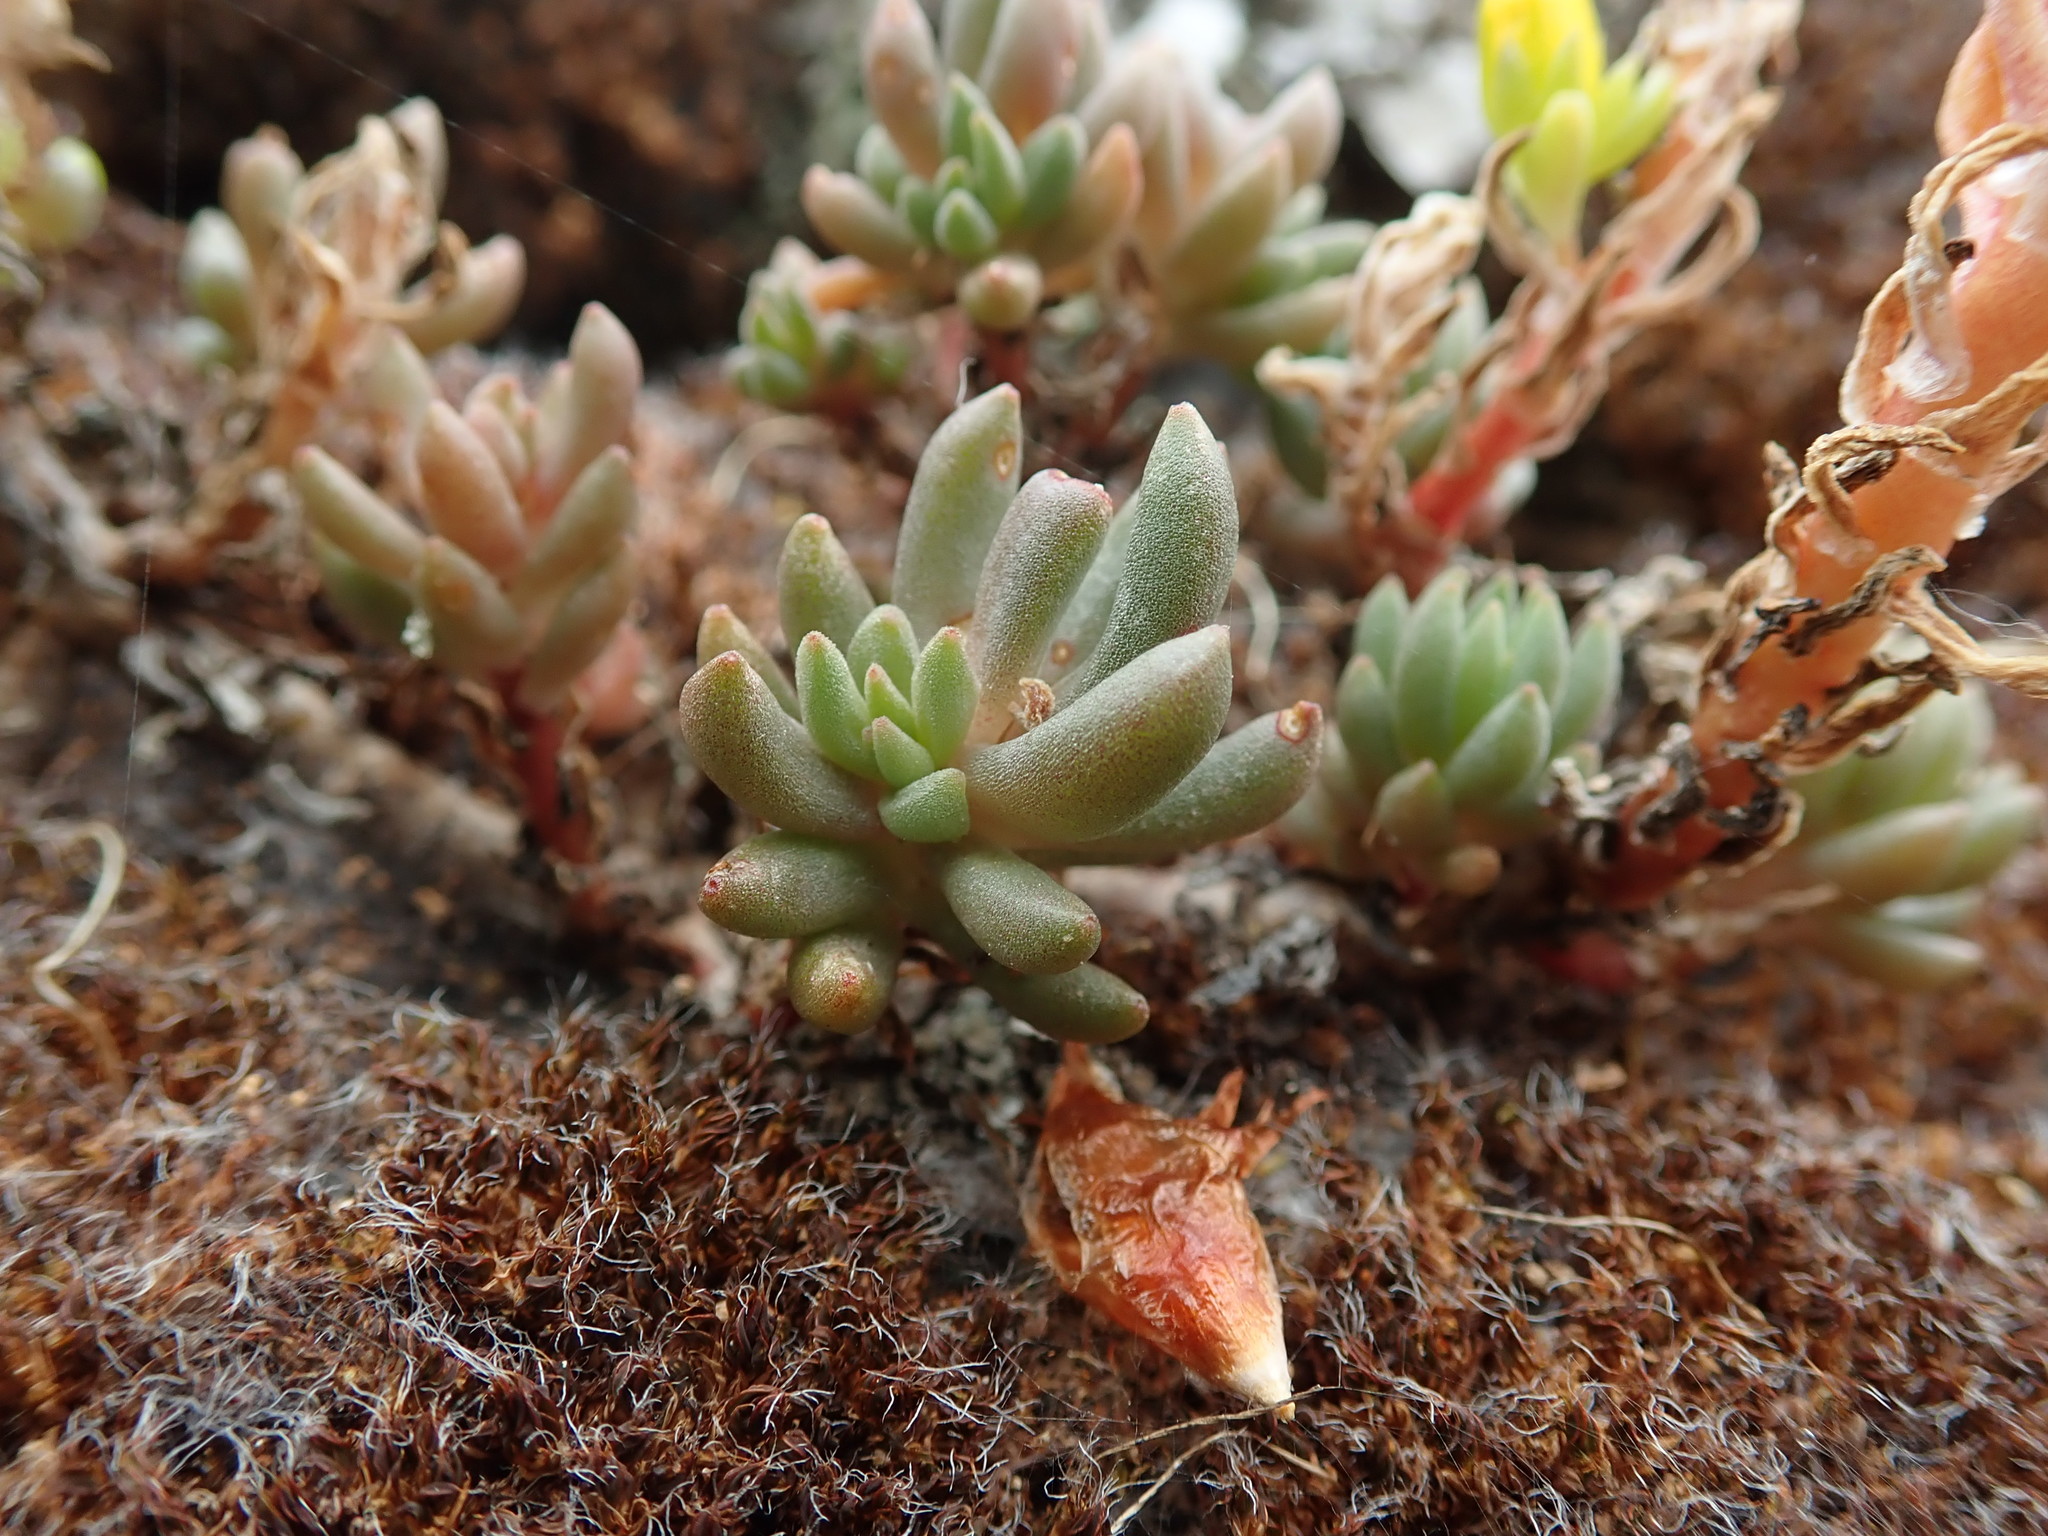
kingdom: Plantae
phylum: Tracheophyta
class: Magnoliopsida
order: Saxifragales
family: Crassulaceae
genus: Sedum
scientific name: Sedum lanceolatum
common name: Common stonecrop
